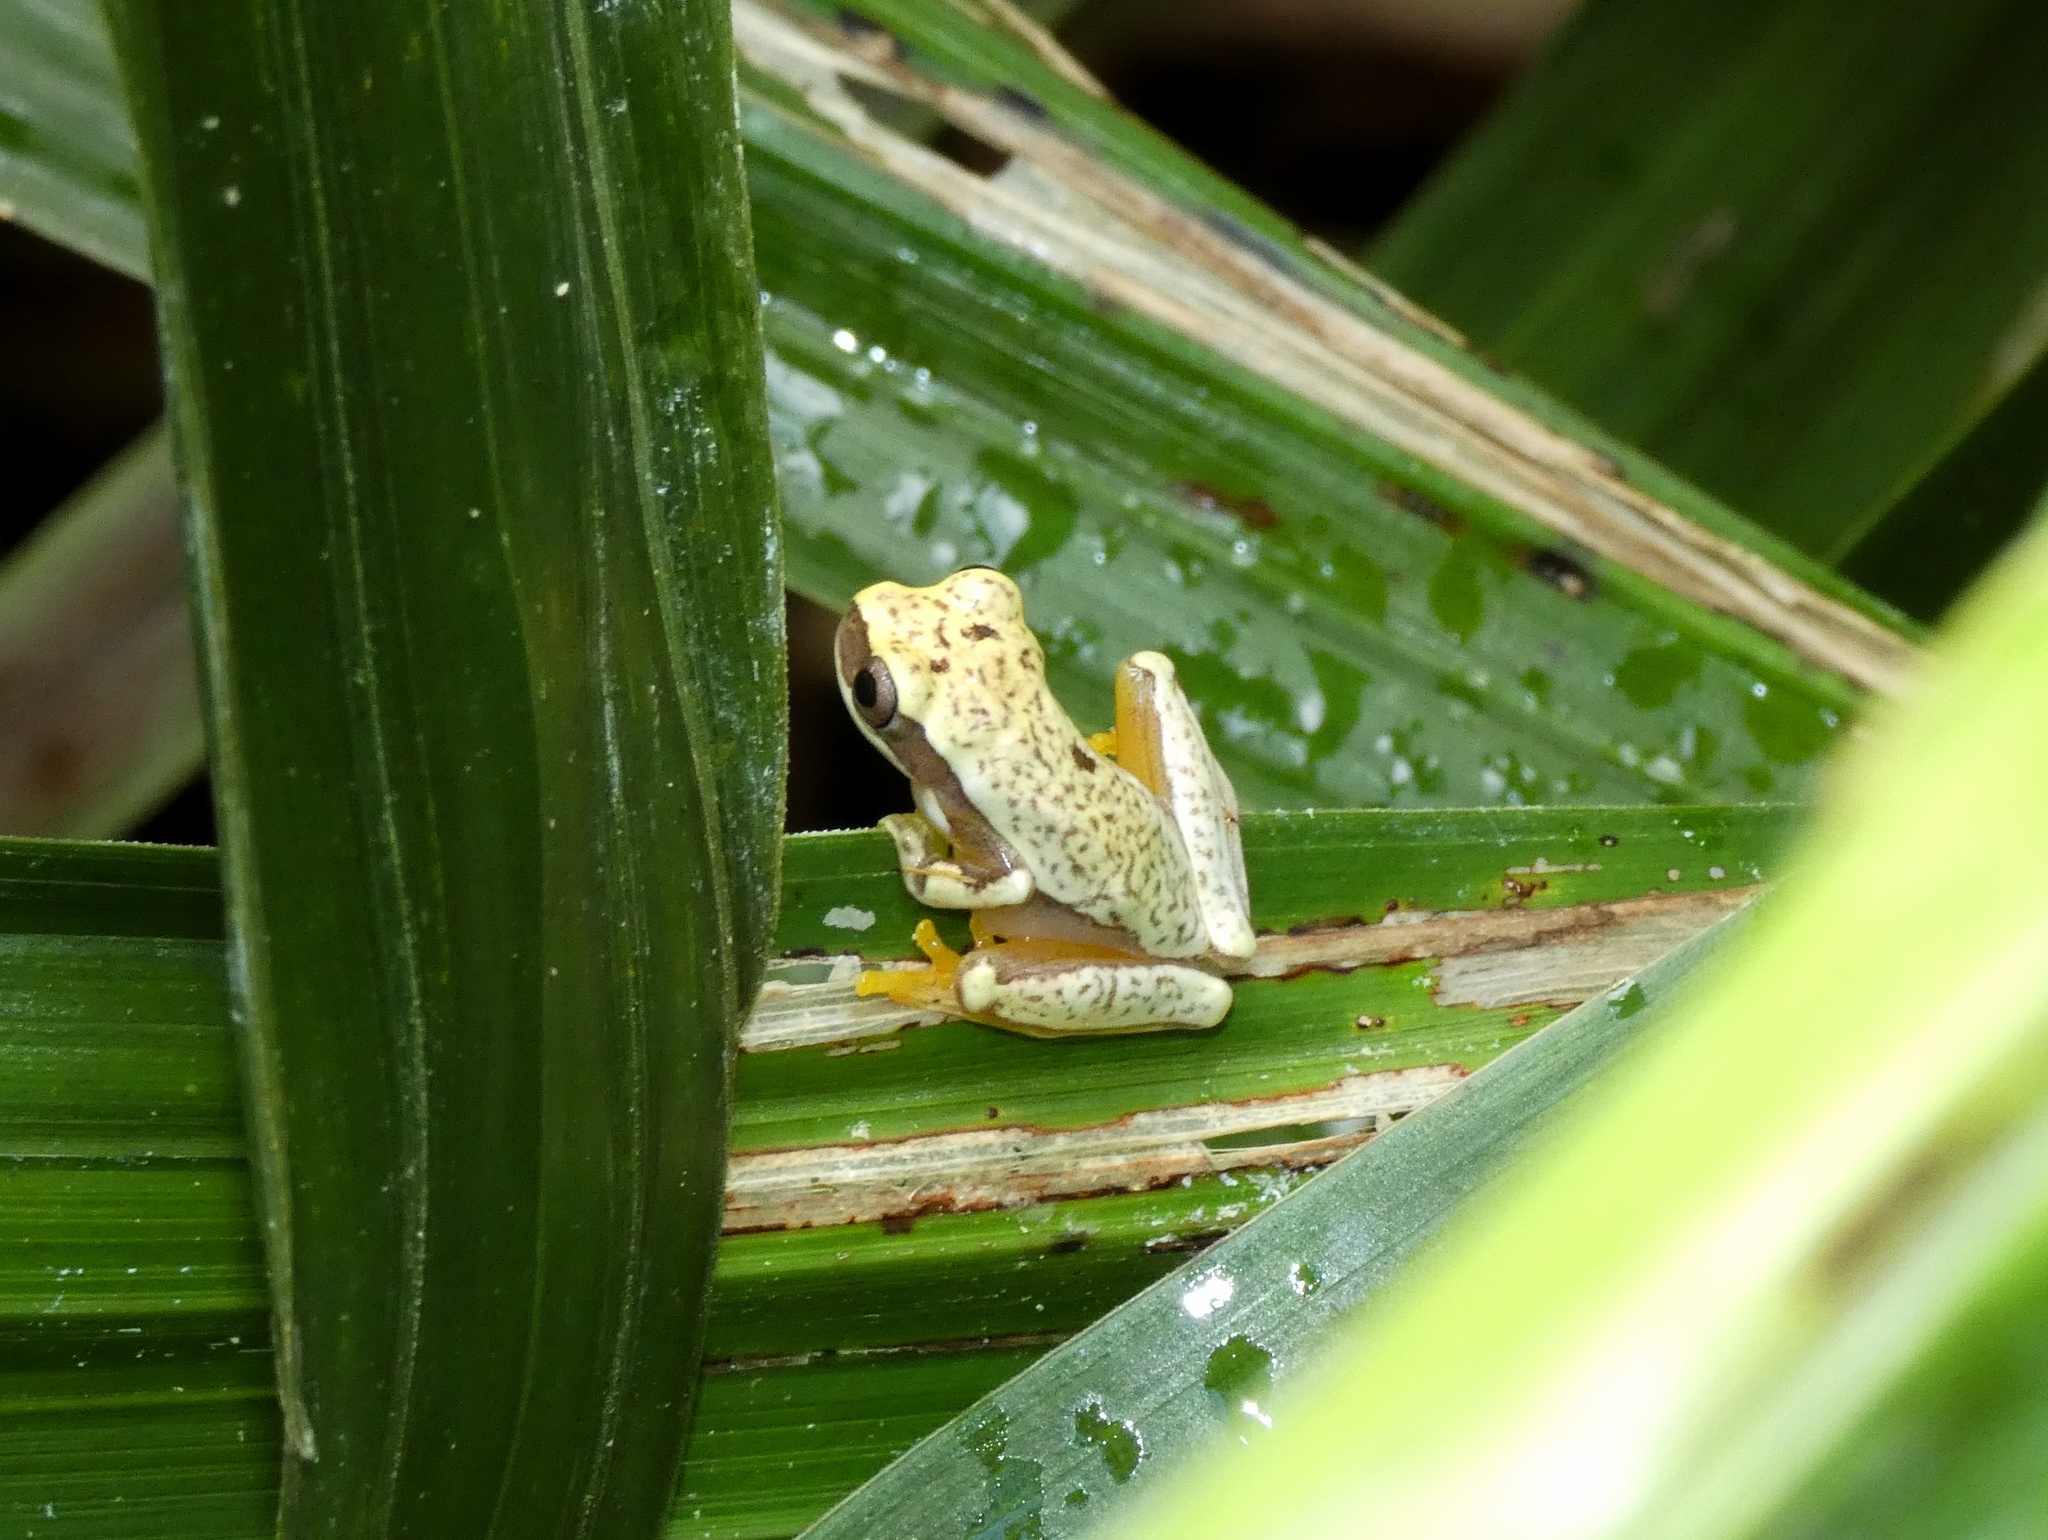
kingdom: Animalia
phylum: Chordata
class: Amphibia
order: Anura
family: Hylidae
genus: Dendropsophus
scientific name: Dendropsophus ebraccatus
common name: Hourglass treefrog
